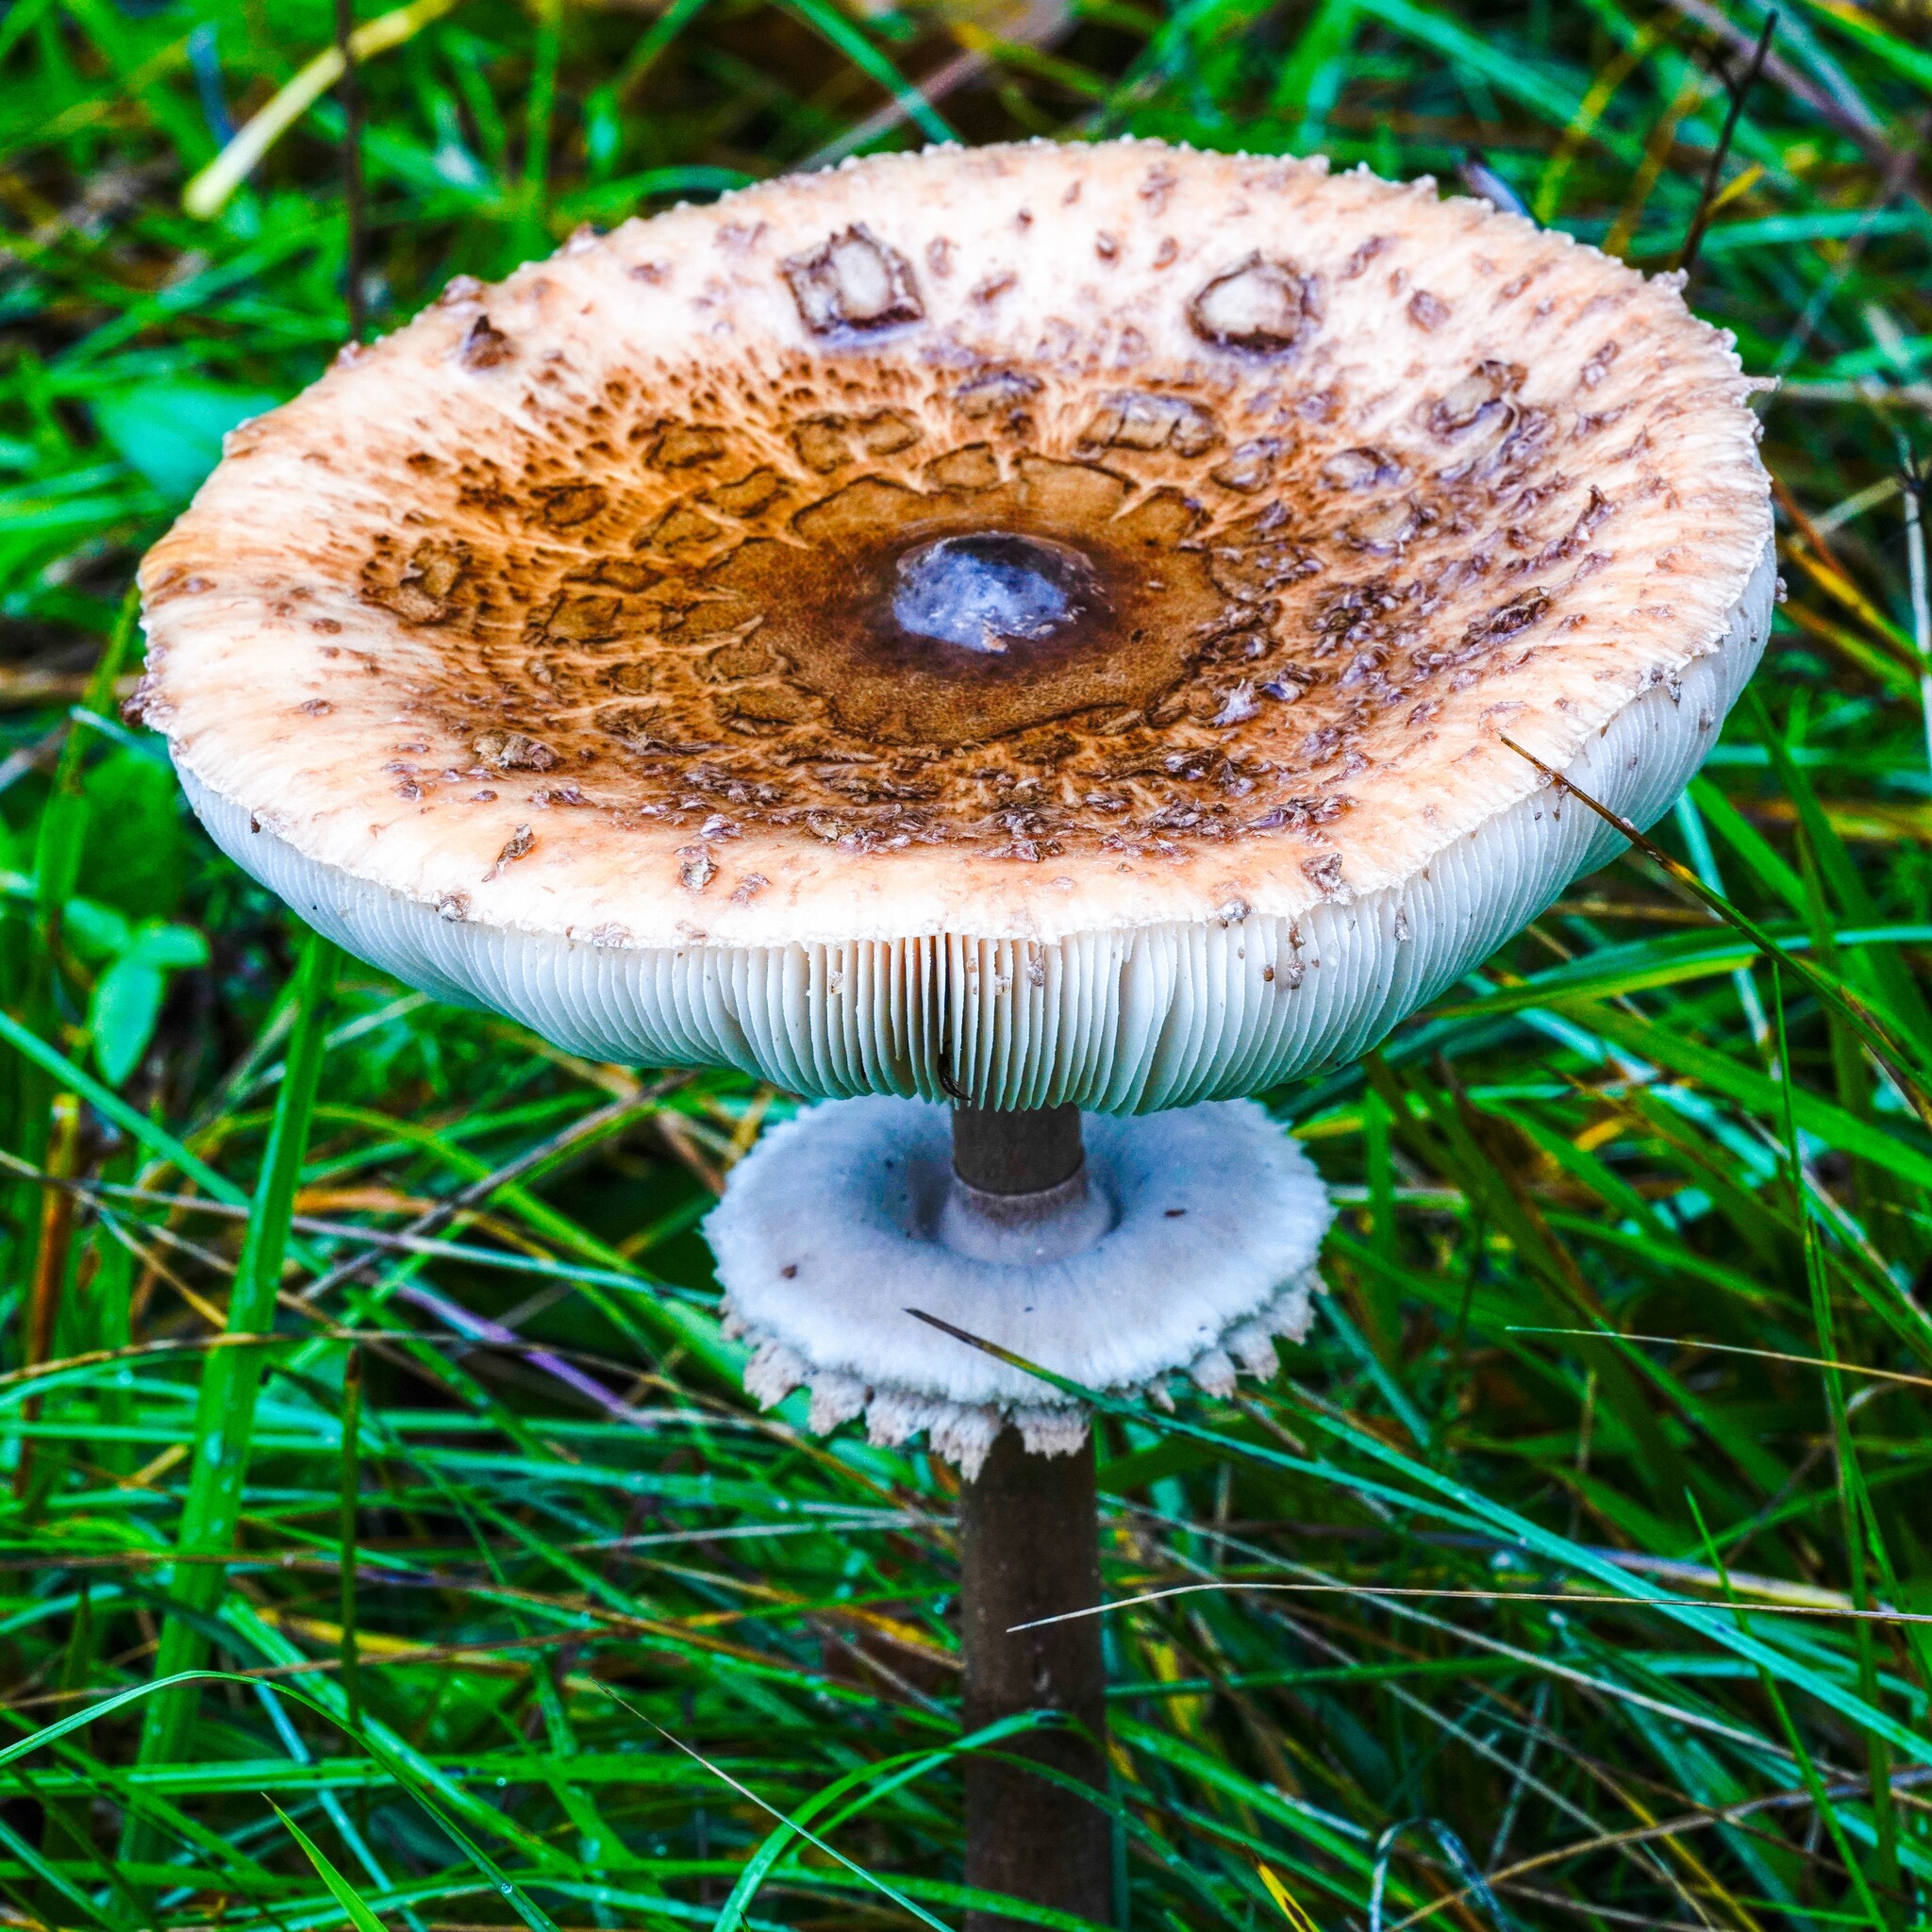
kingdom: Fungi
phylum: Basidiomycota
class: Agaricomycetes
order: Agaricales
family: Agaricaceae
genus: Macrolepiota
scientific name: Macrolepiota procera
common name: Parasol
